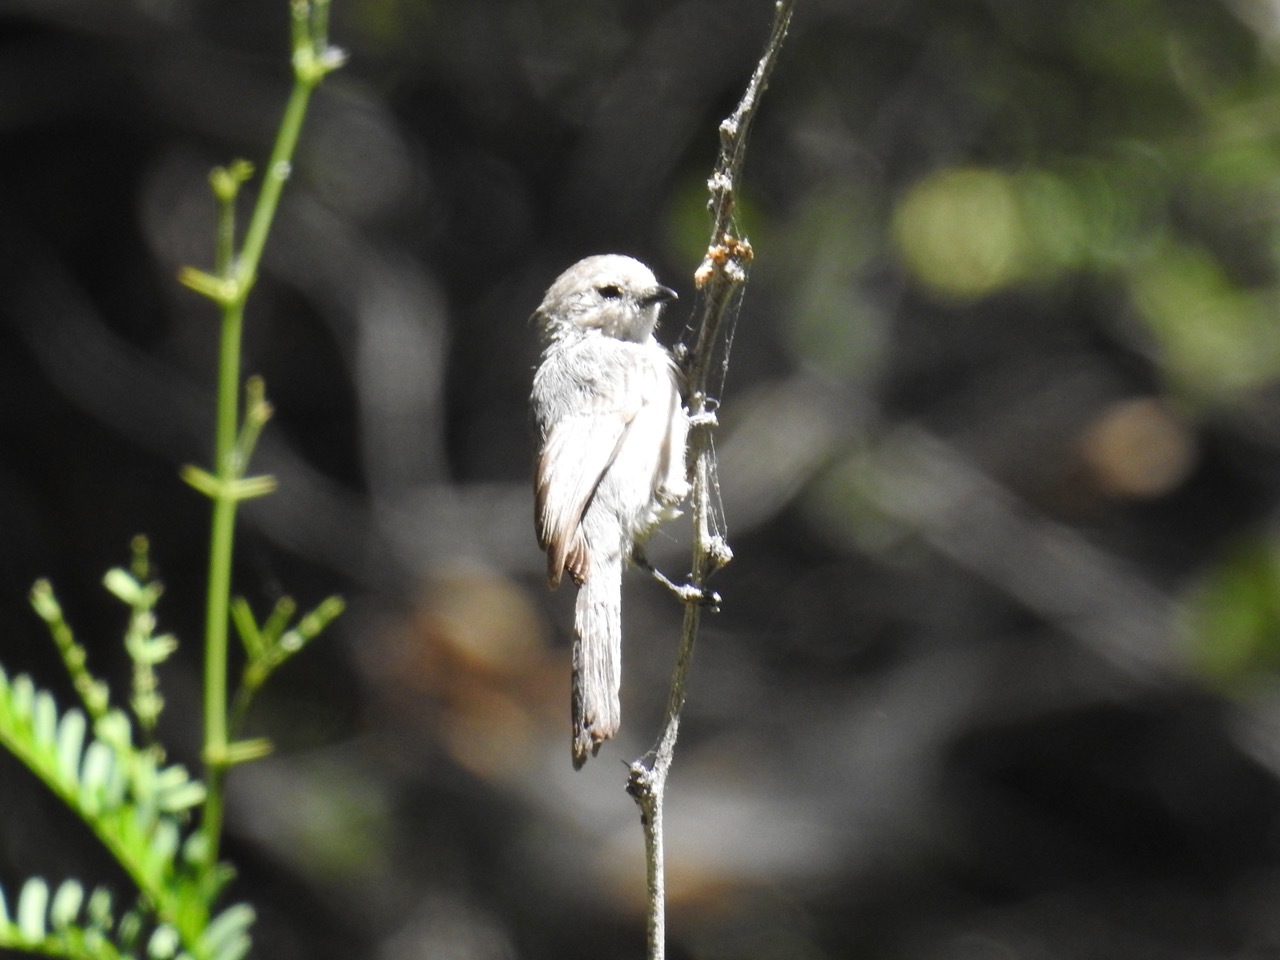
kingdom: Animalia
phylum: Chordata
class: Aves
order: Passeriformes
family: Aegithalidae
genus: Psaltriparus
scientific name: Psaltriparus minimus
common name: American bushtit
